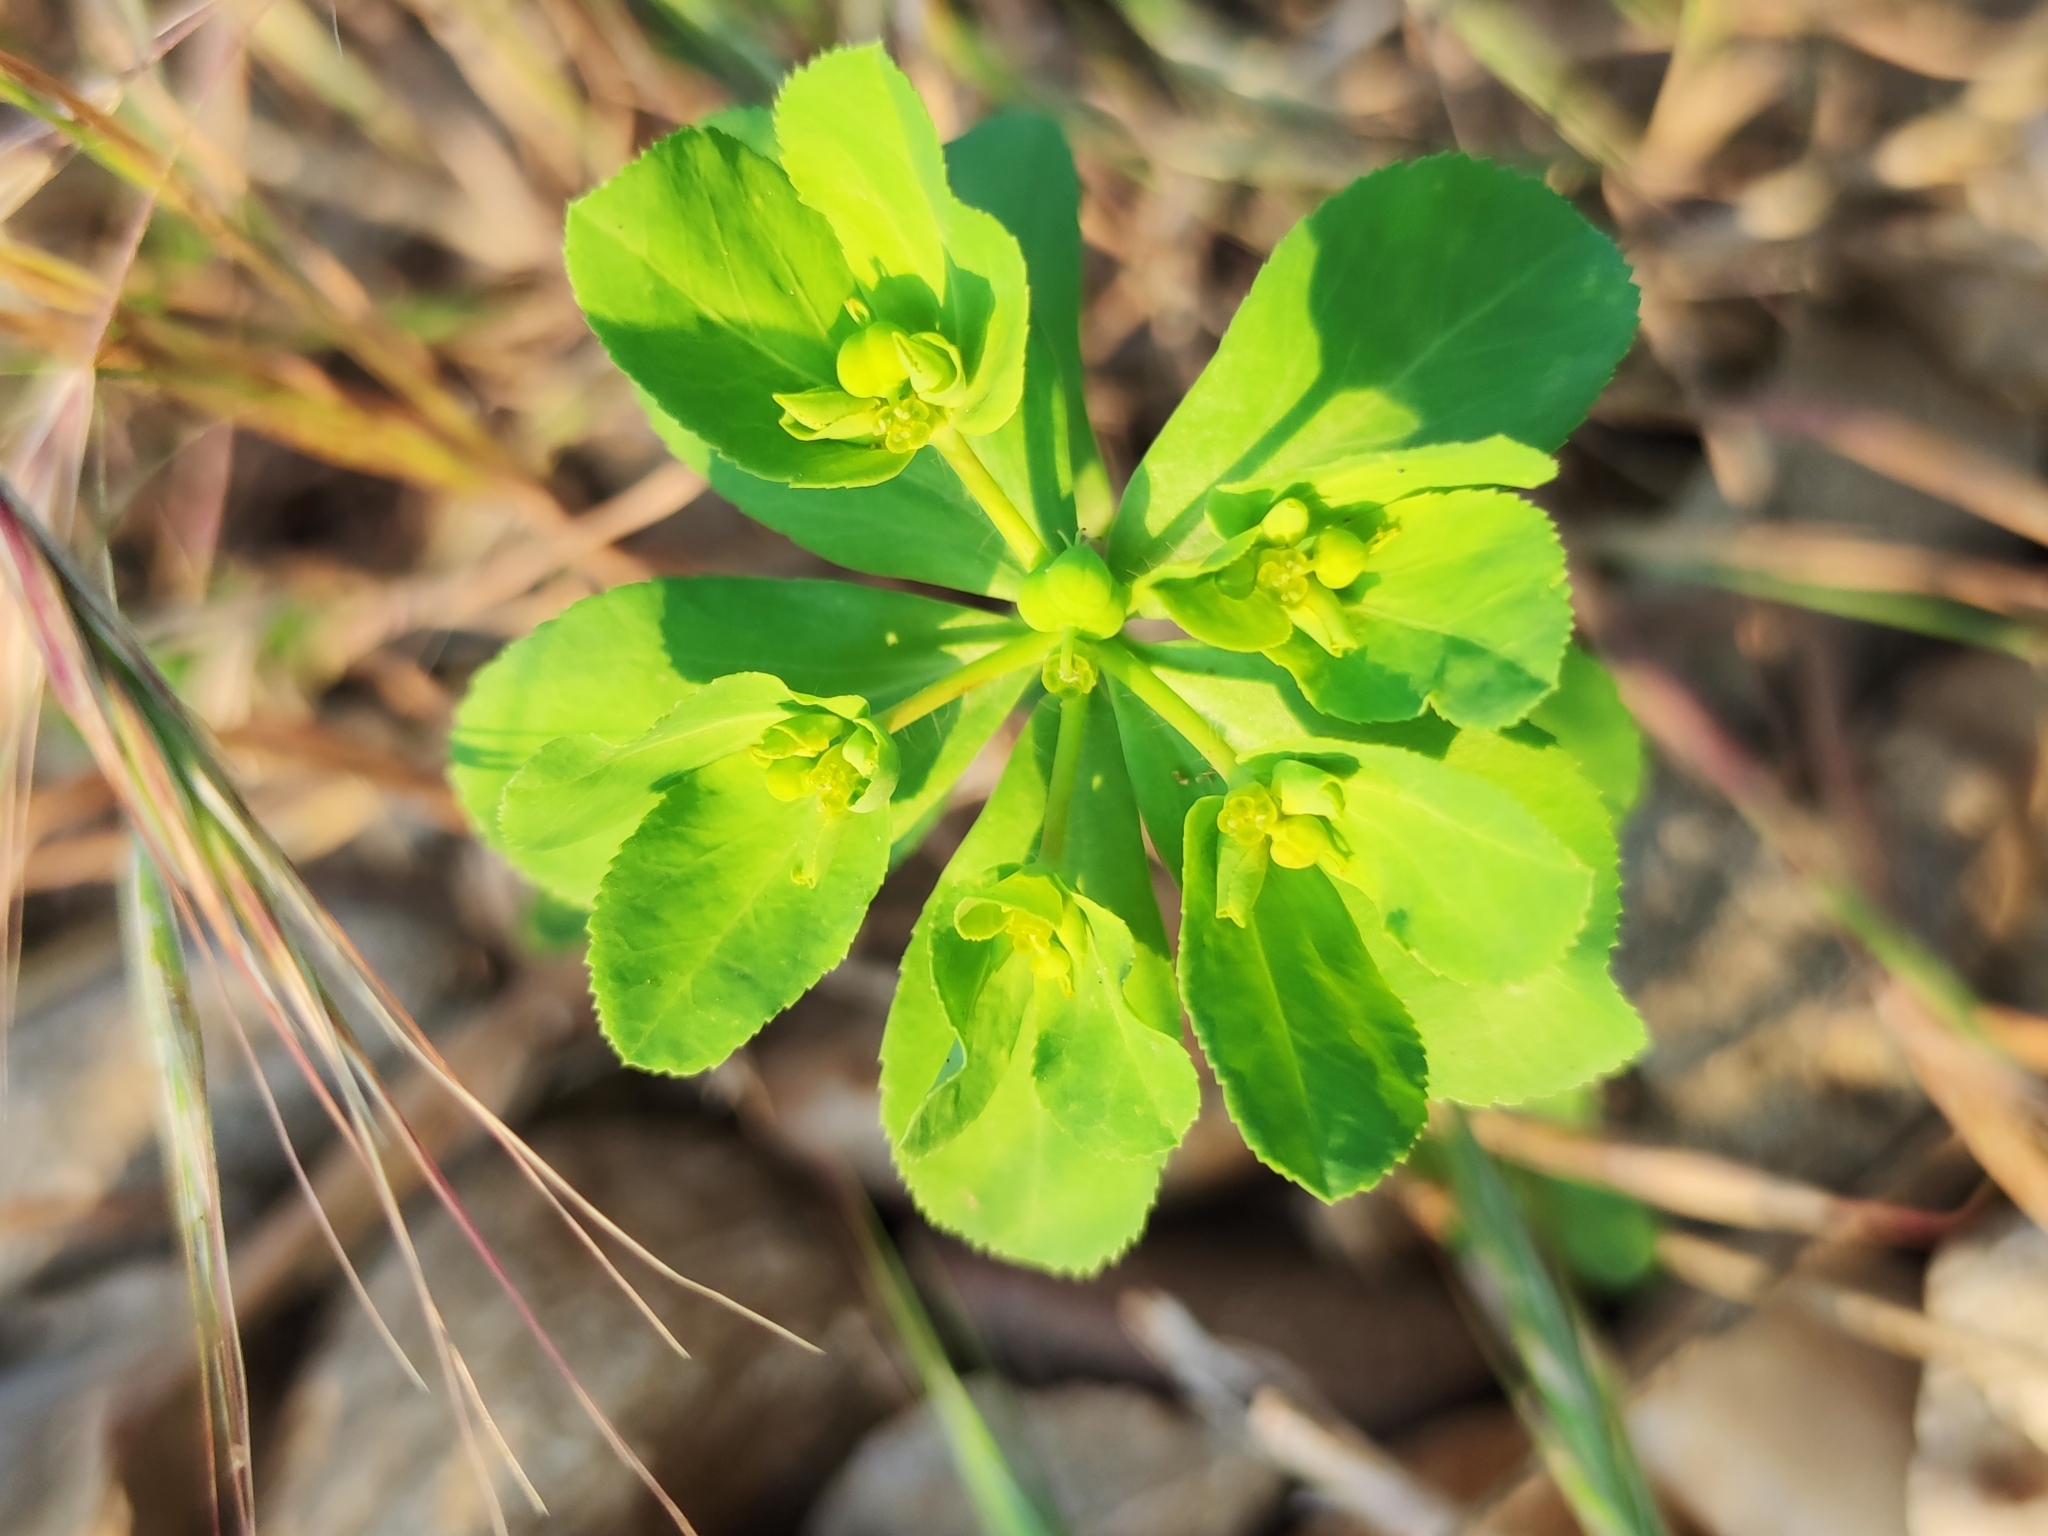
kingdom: Plantae
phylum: Tracheophyta
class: Magnoliopsida
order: Malpighiales
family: Euphorbiaceae
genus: Euphorbia
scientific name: Euphorbia helioscopia
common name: Sun spurge
